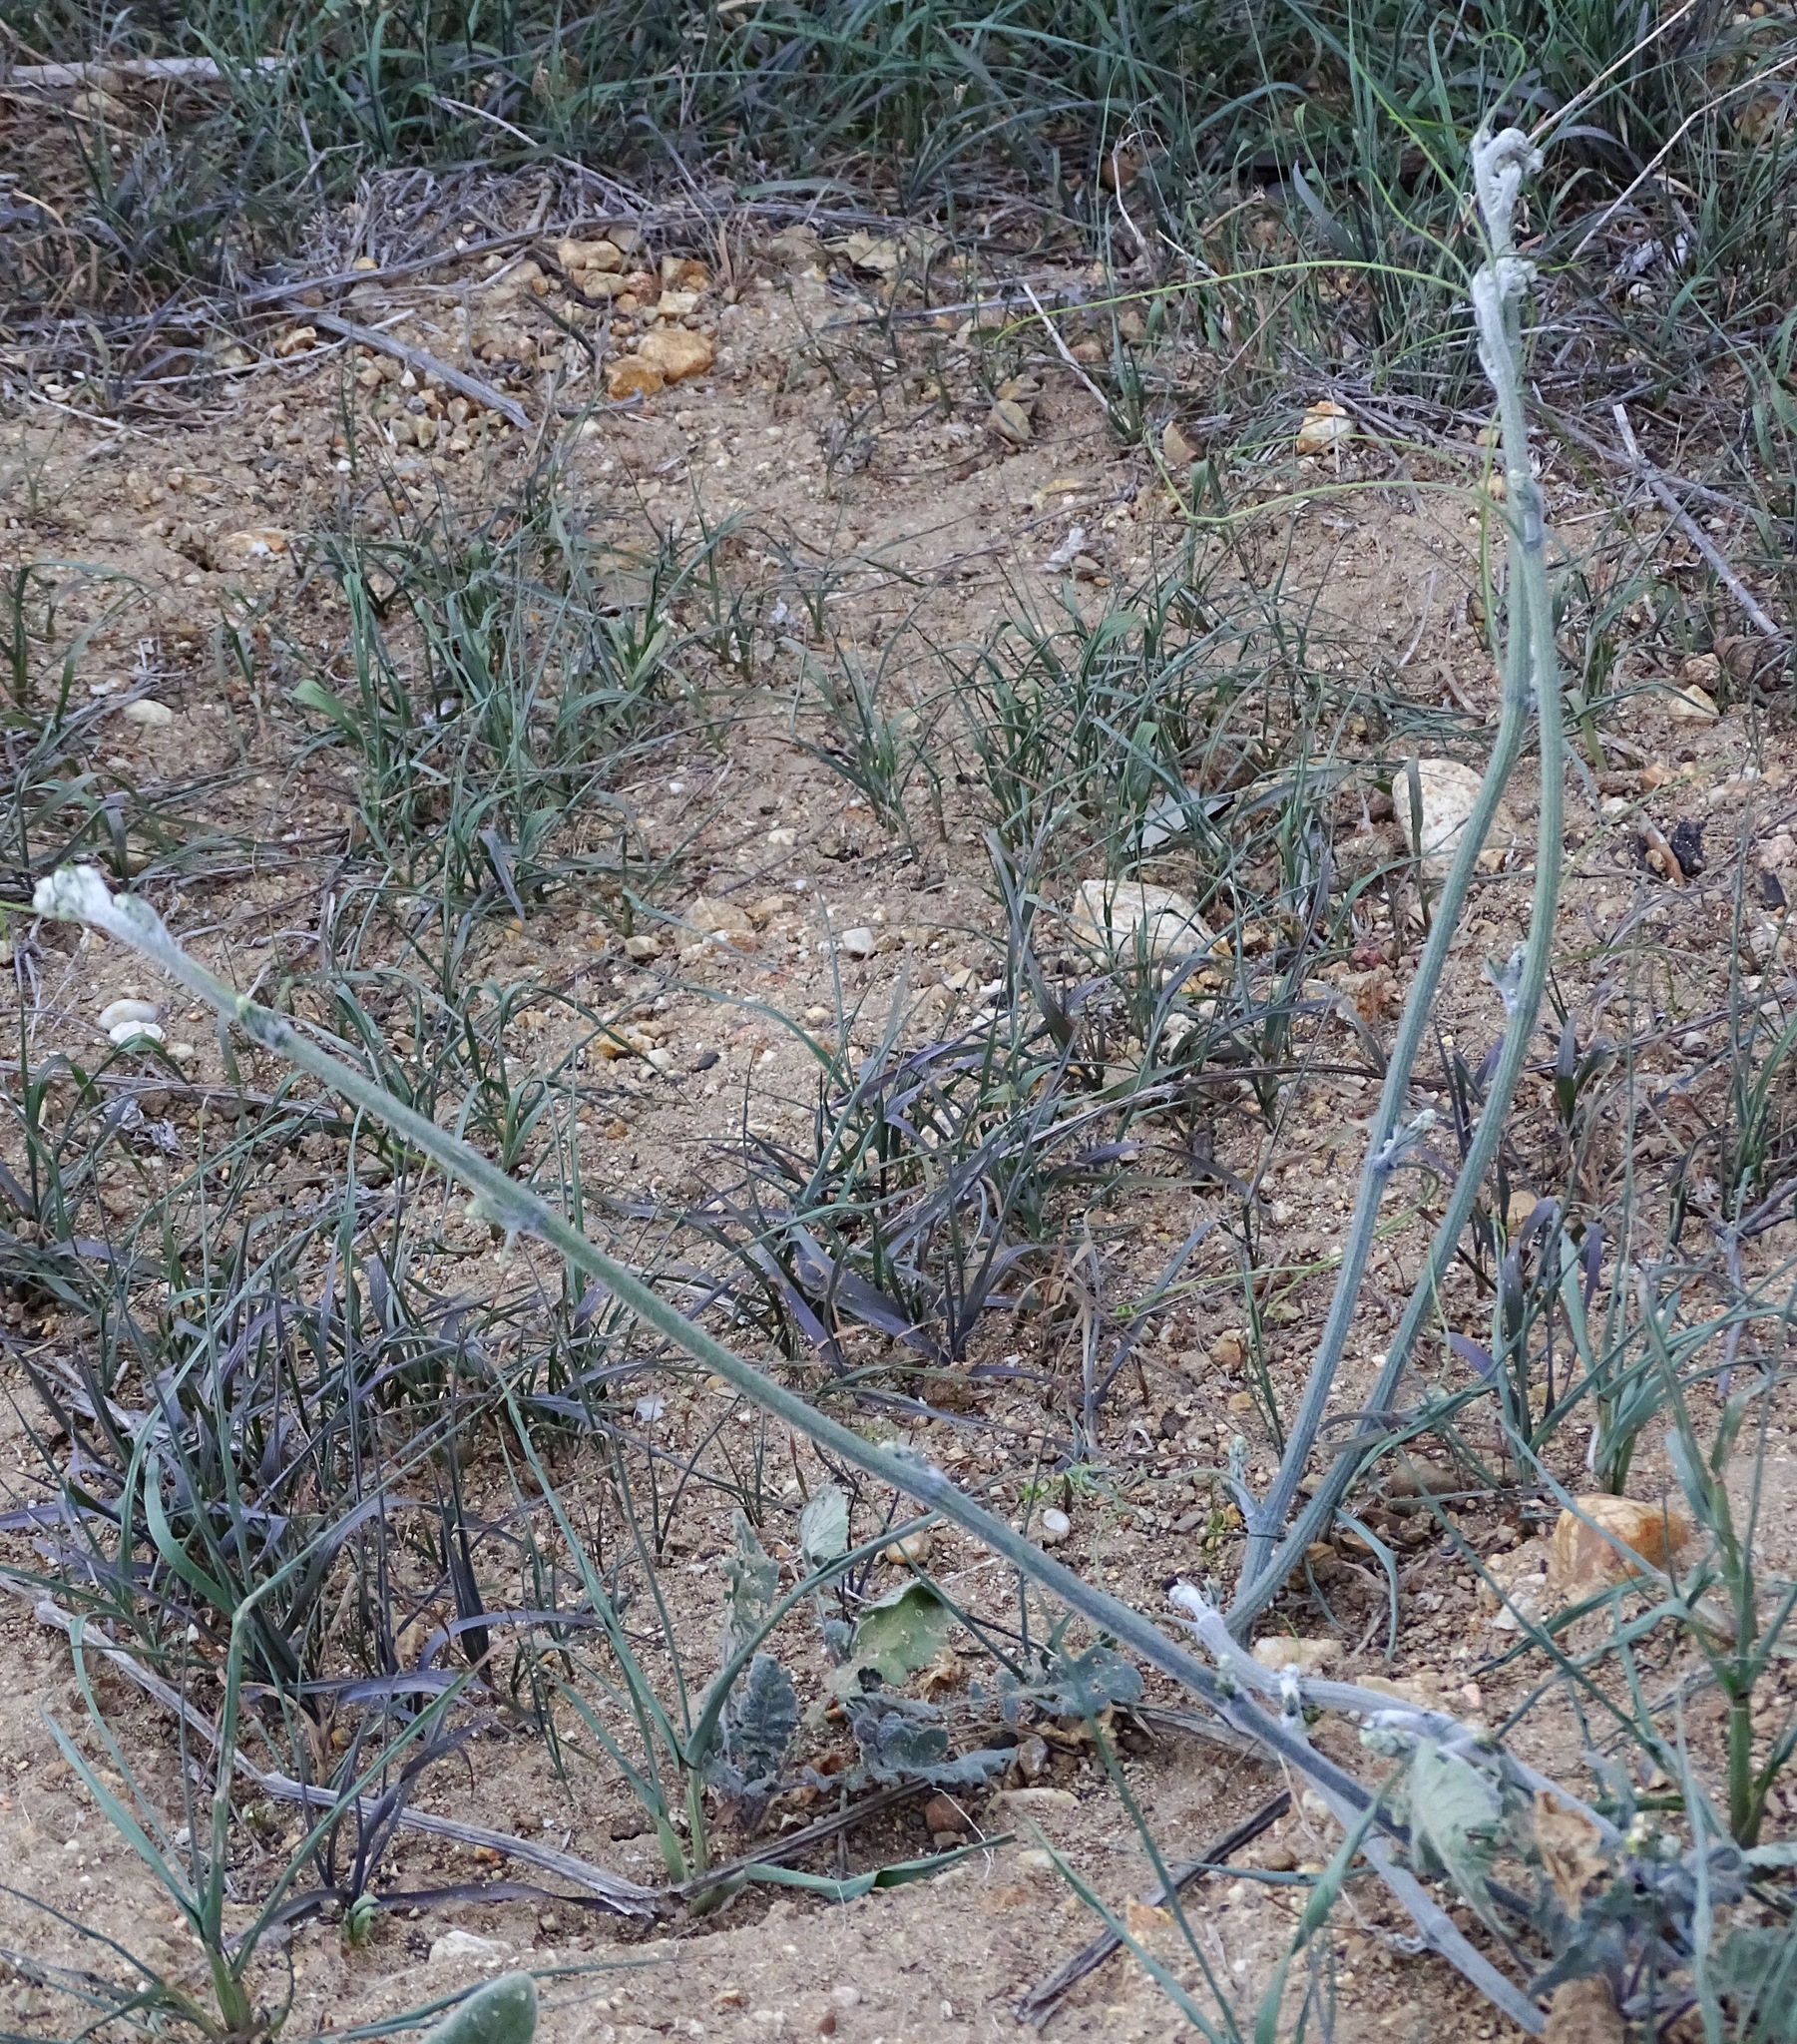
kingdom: Plantae
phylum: Tracheophyta
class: Magnoliopsida
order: Cucurbitales
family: Cucurbitaceae
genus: Marah
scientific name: Marah macrocarpa
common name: Cucamonga manroot
